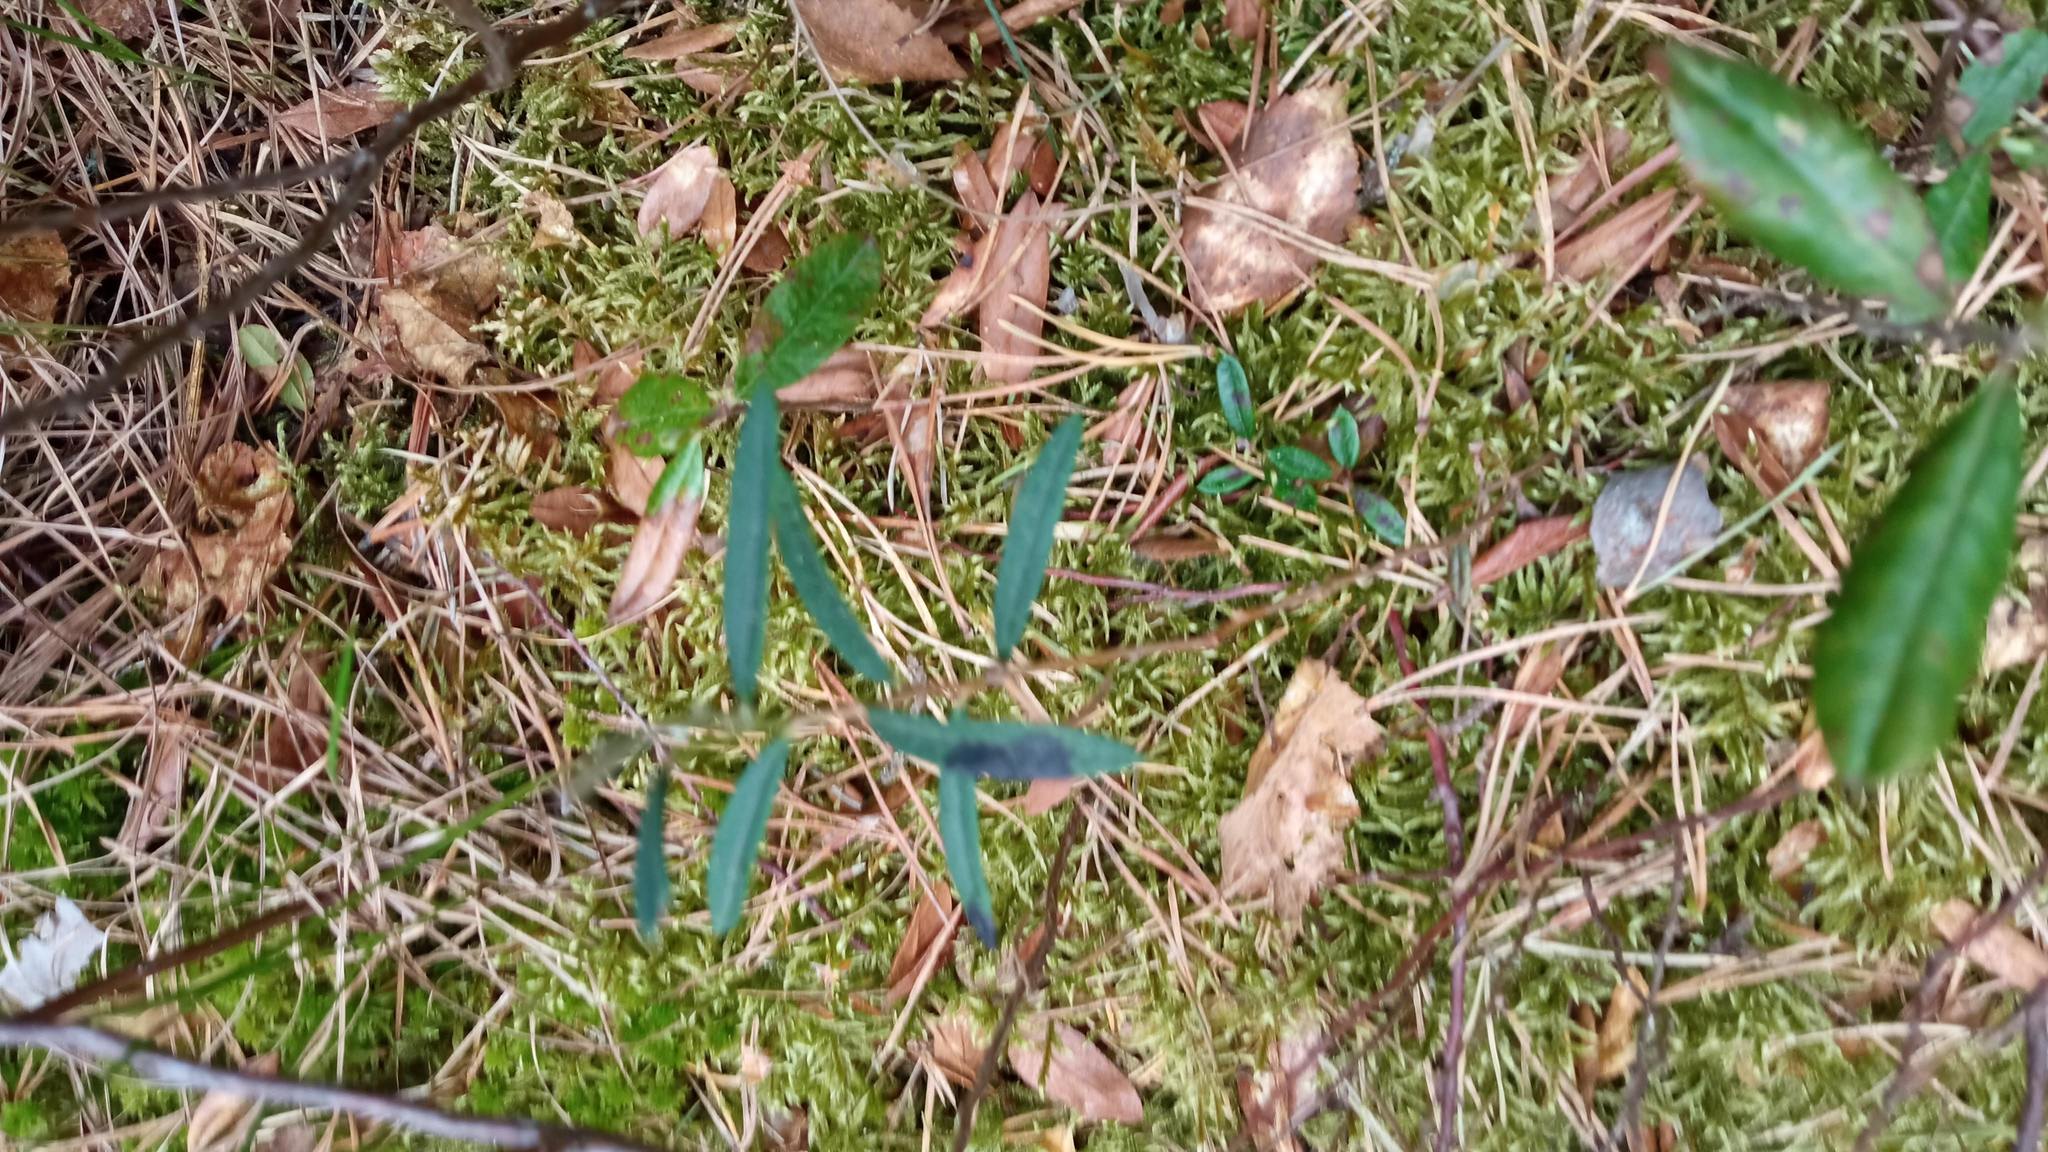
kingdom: Plantae
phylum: Tracheophyta
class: Magnoliopsida
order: Ericales
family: Ericaceae
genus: Andromeda
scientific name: Andromeda polifolia
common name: Bog-rosemary
